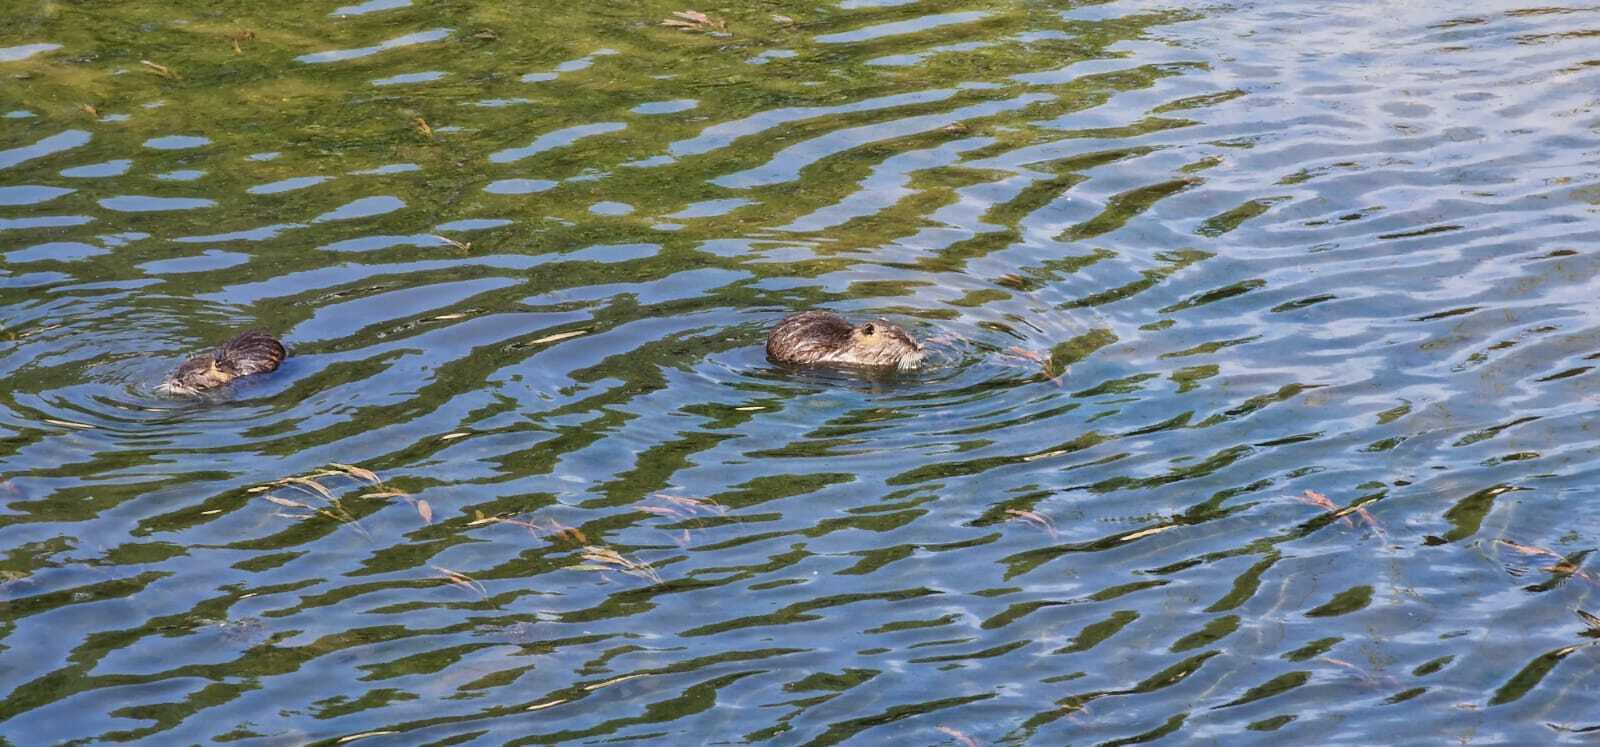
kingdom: Animalia
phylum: Chordata
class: Mammalia
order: Rodentia
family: Myocastoridae
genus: Myocastor
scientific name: Myocastor coypus
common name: Coypu
